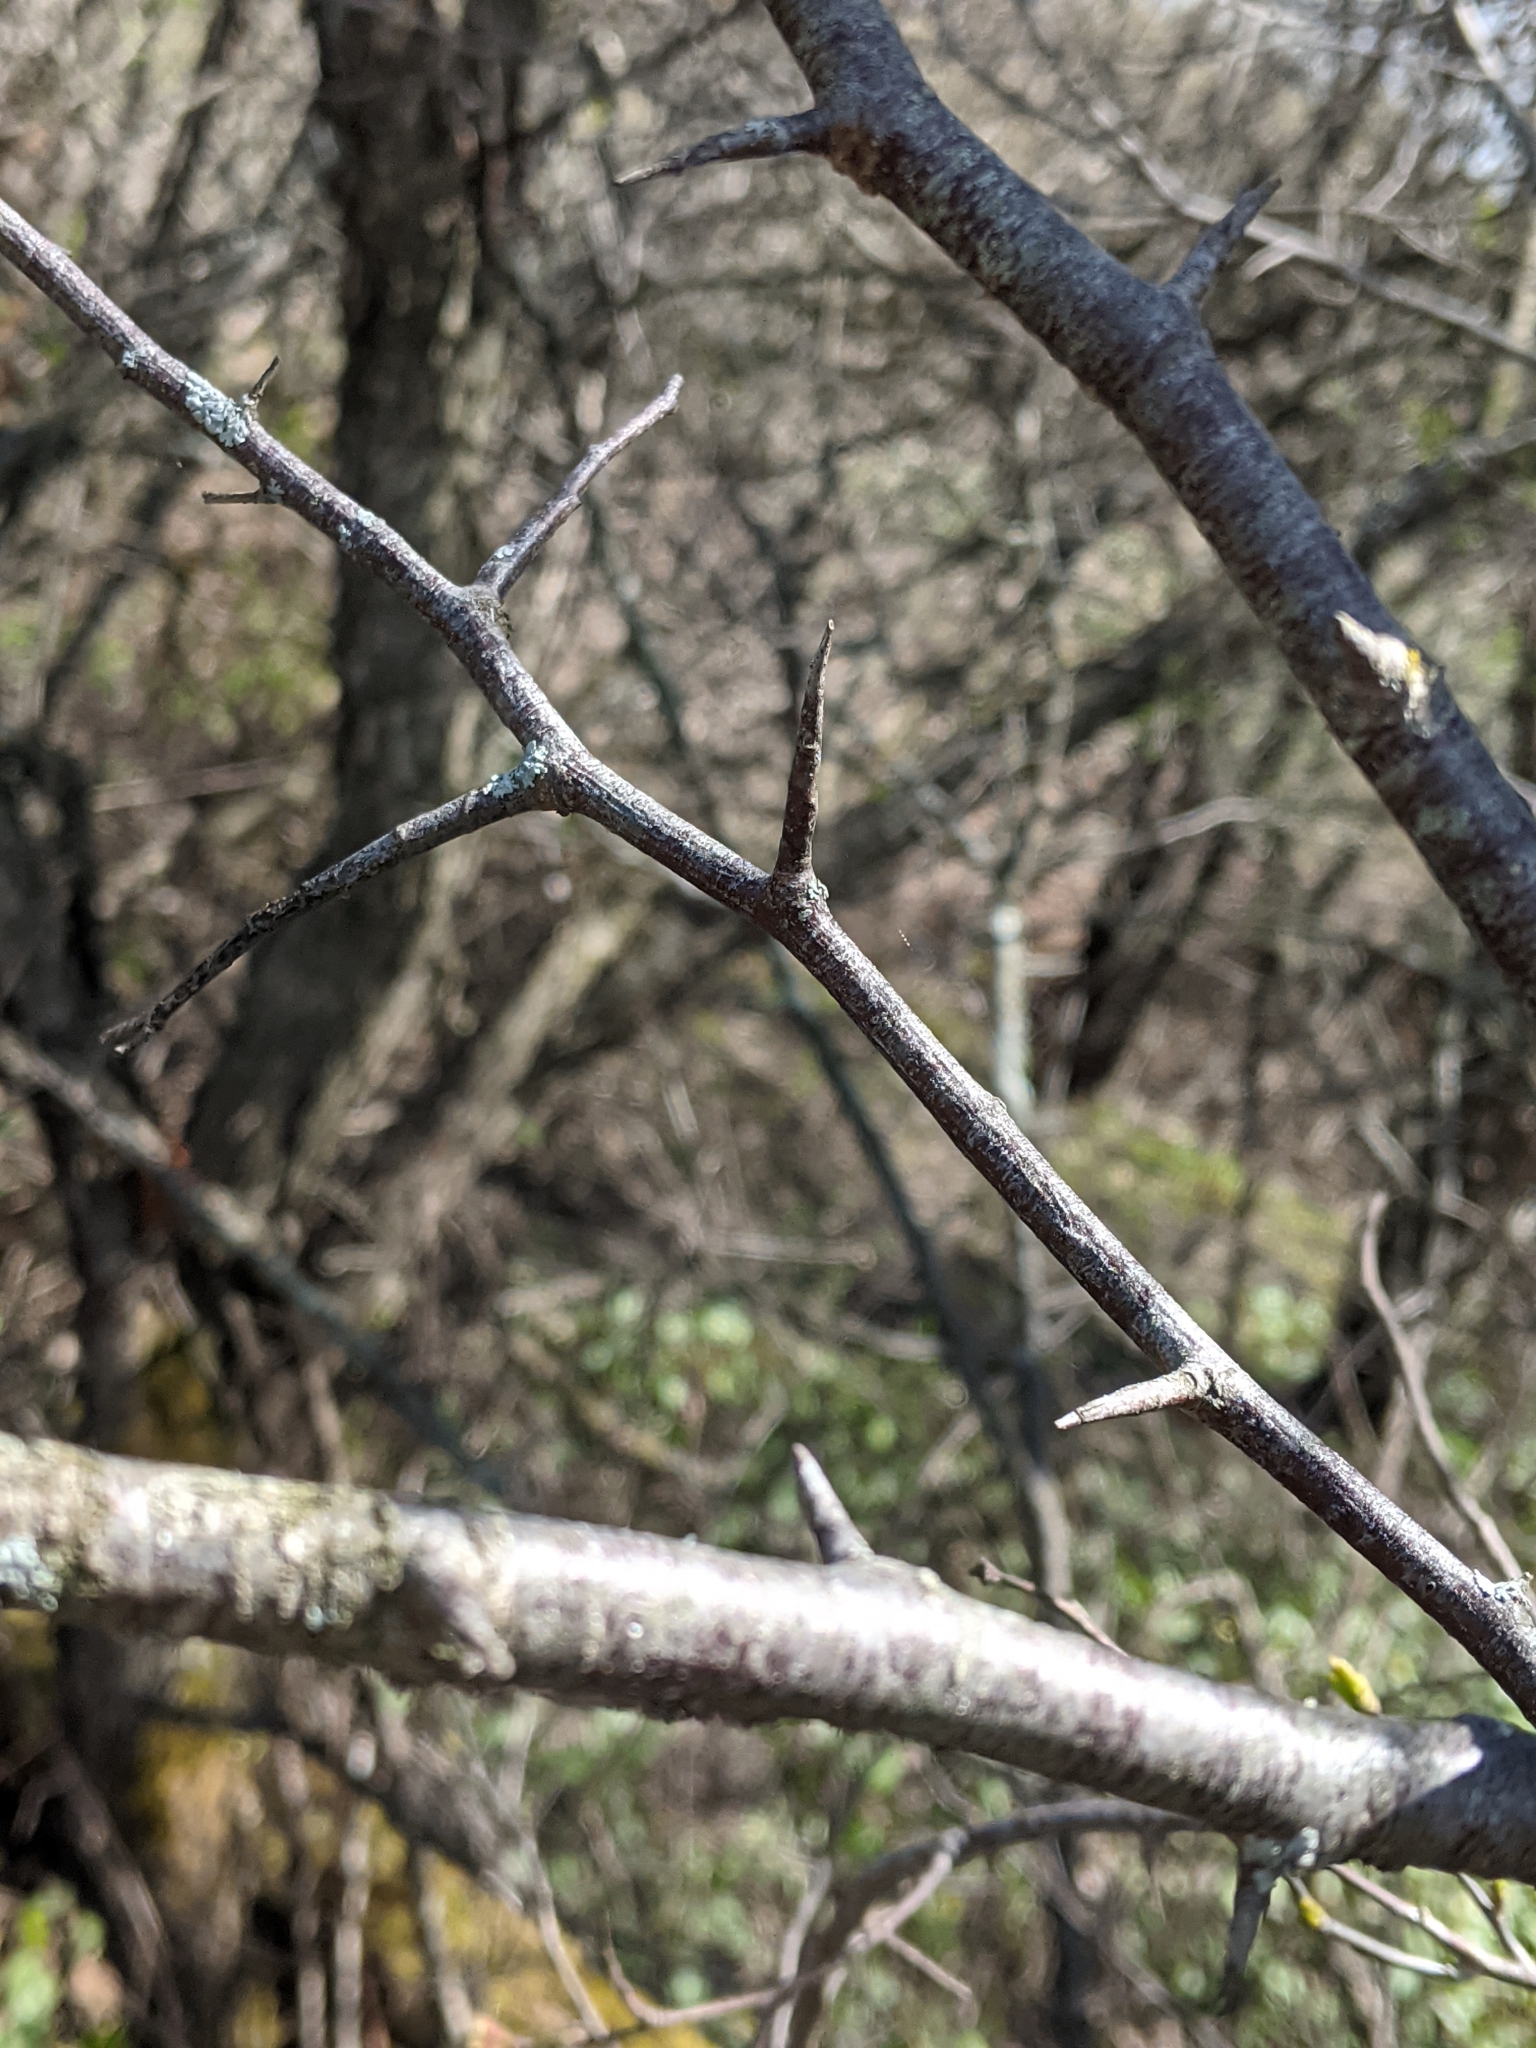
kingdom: Plantae
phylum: Tracheophyta
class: Magnoliopsida
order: Rosales
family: Rosaceae
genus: Prunus
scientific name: Prunus nigra
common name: Black plum
